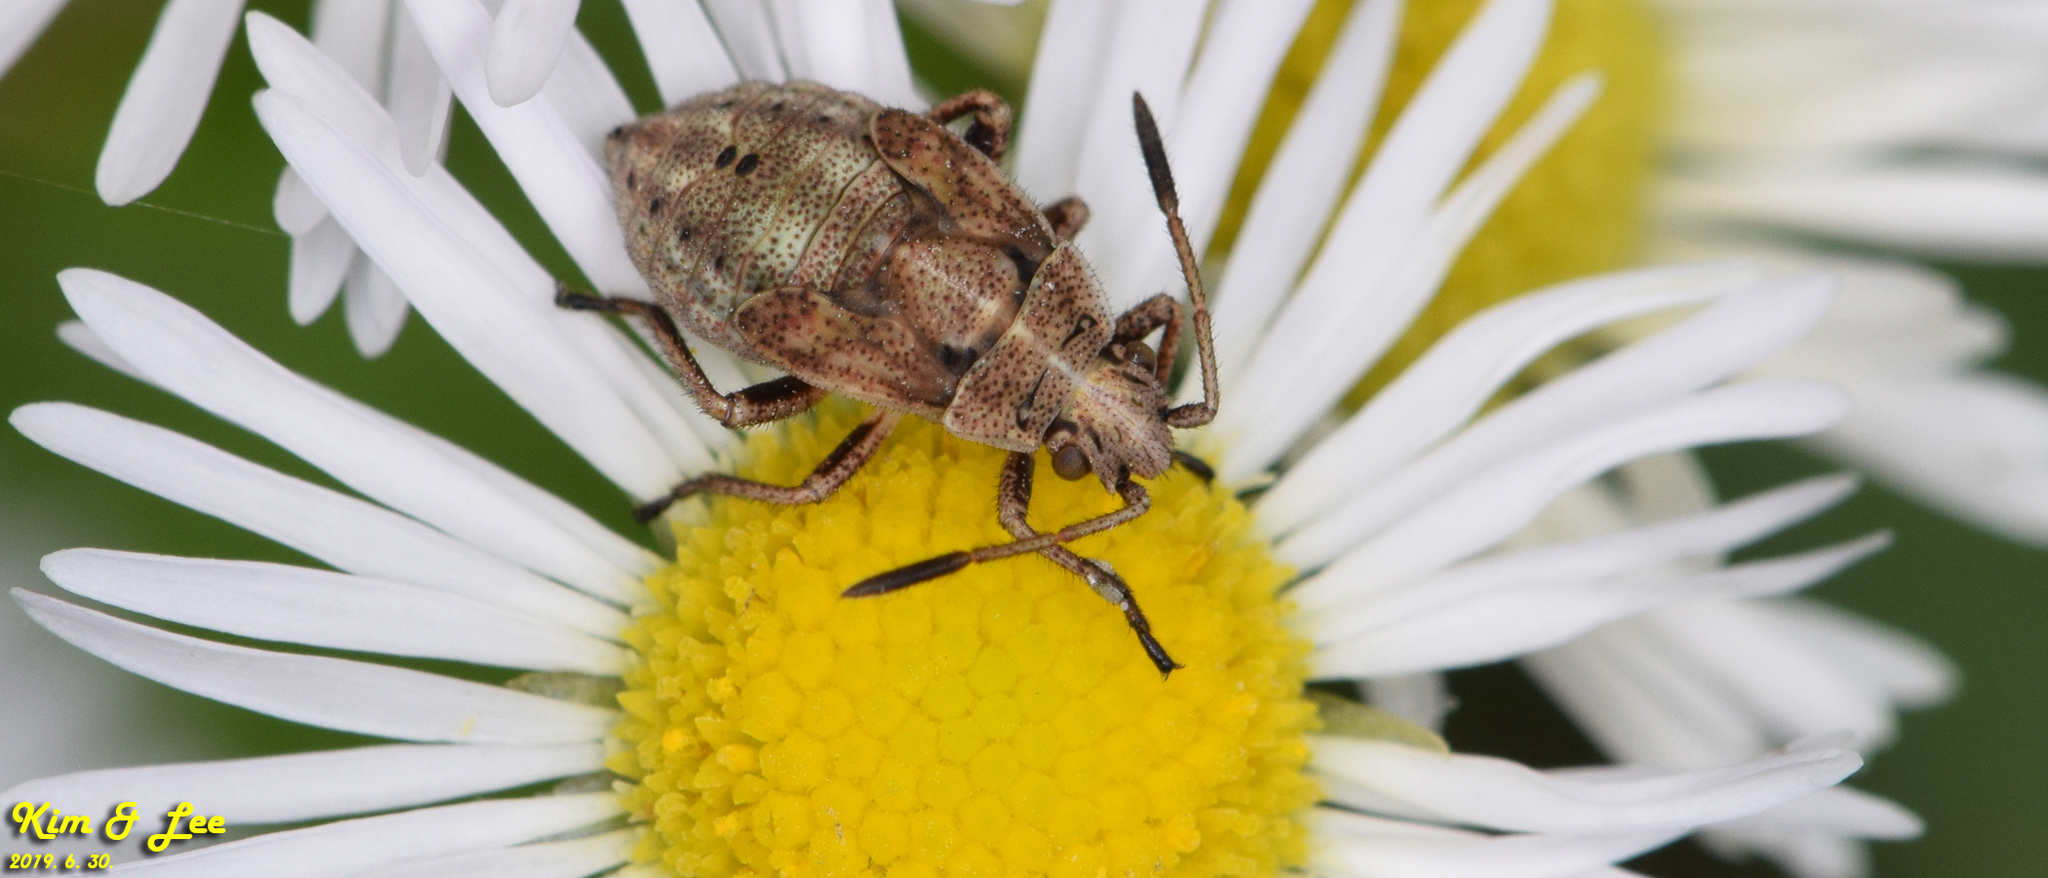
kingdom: Animalia
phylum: Arthropoda
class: Insecta
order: Hemiptera
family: Rhopalidae
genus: Stictopleurus
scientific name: Stictopleurus minutus
